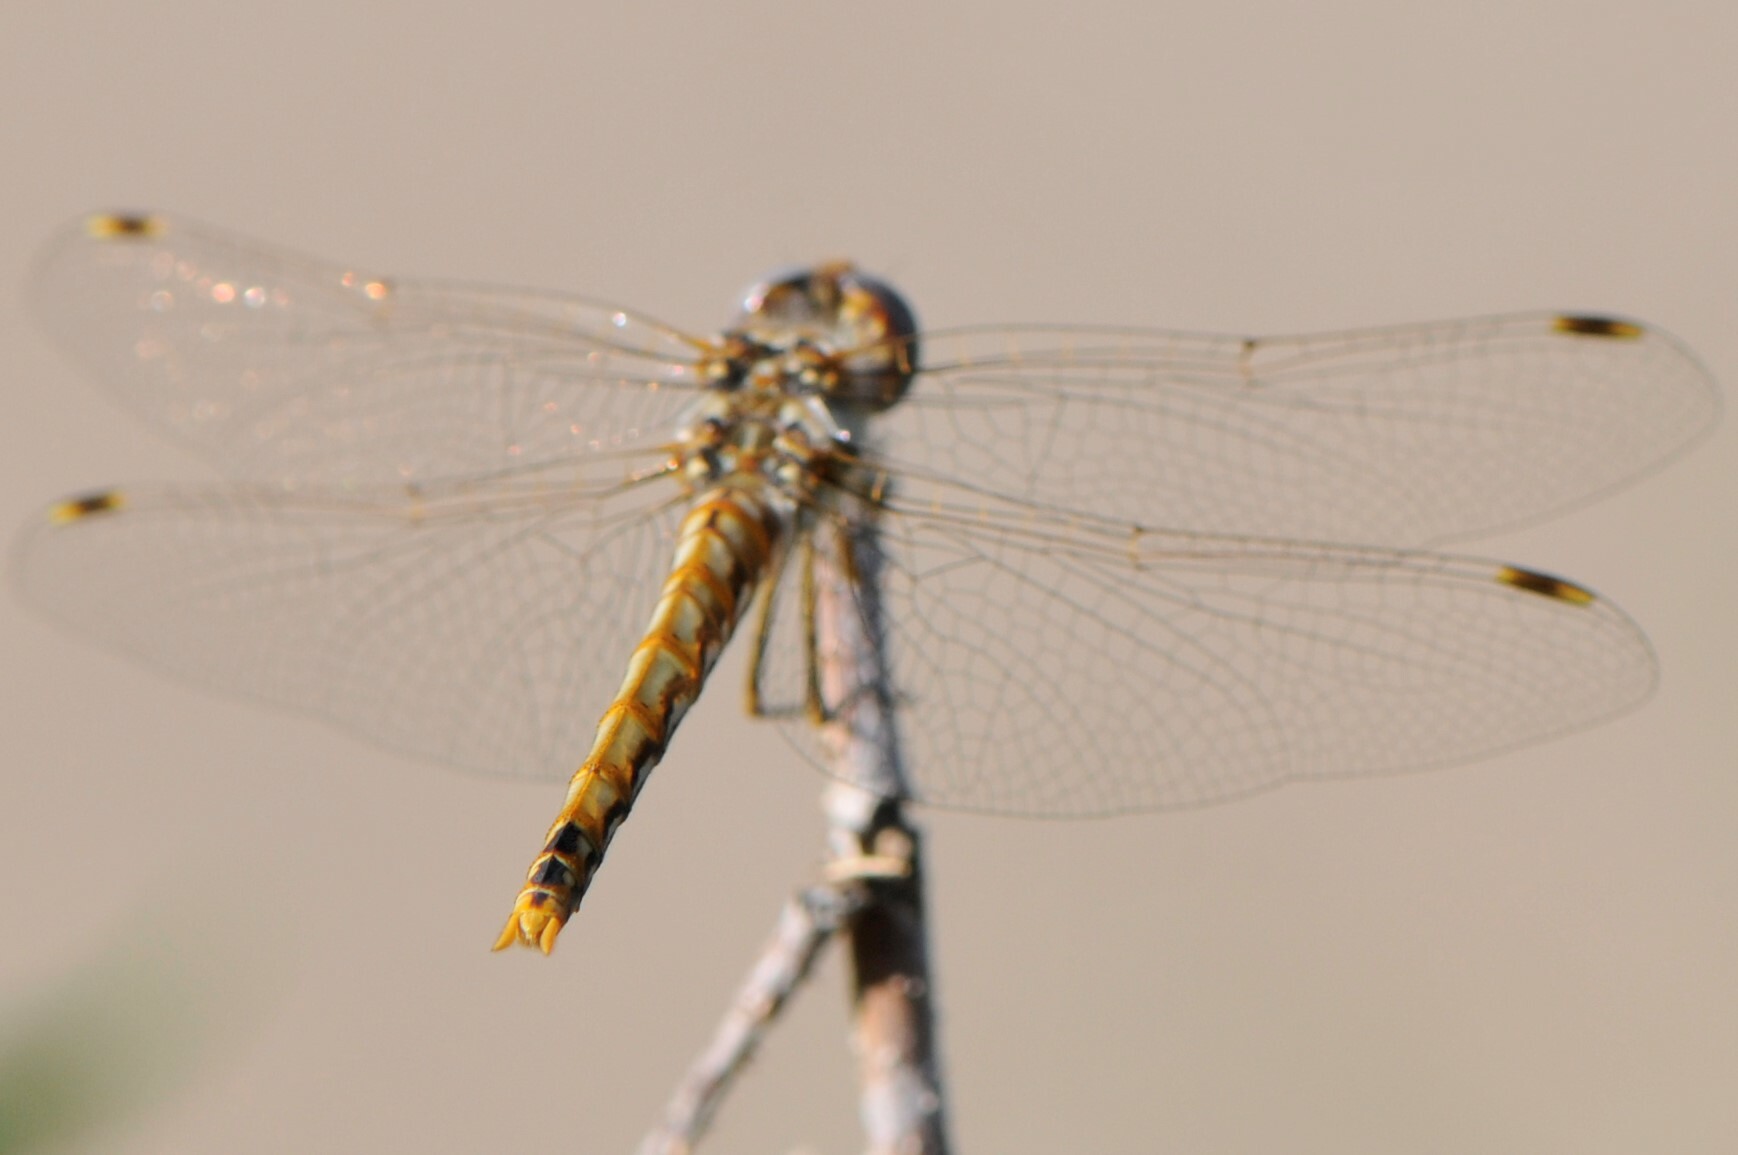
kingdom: Animalia
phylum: Arthropoda
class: Insecta
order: Odonata
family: Libellulidae
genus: Sympetrum
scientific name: Sympetrum corruptum
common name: Variegated meadowhawk
